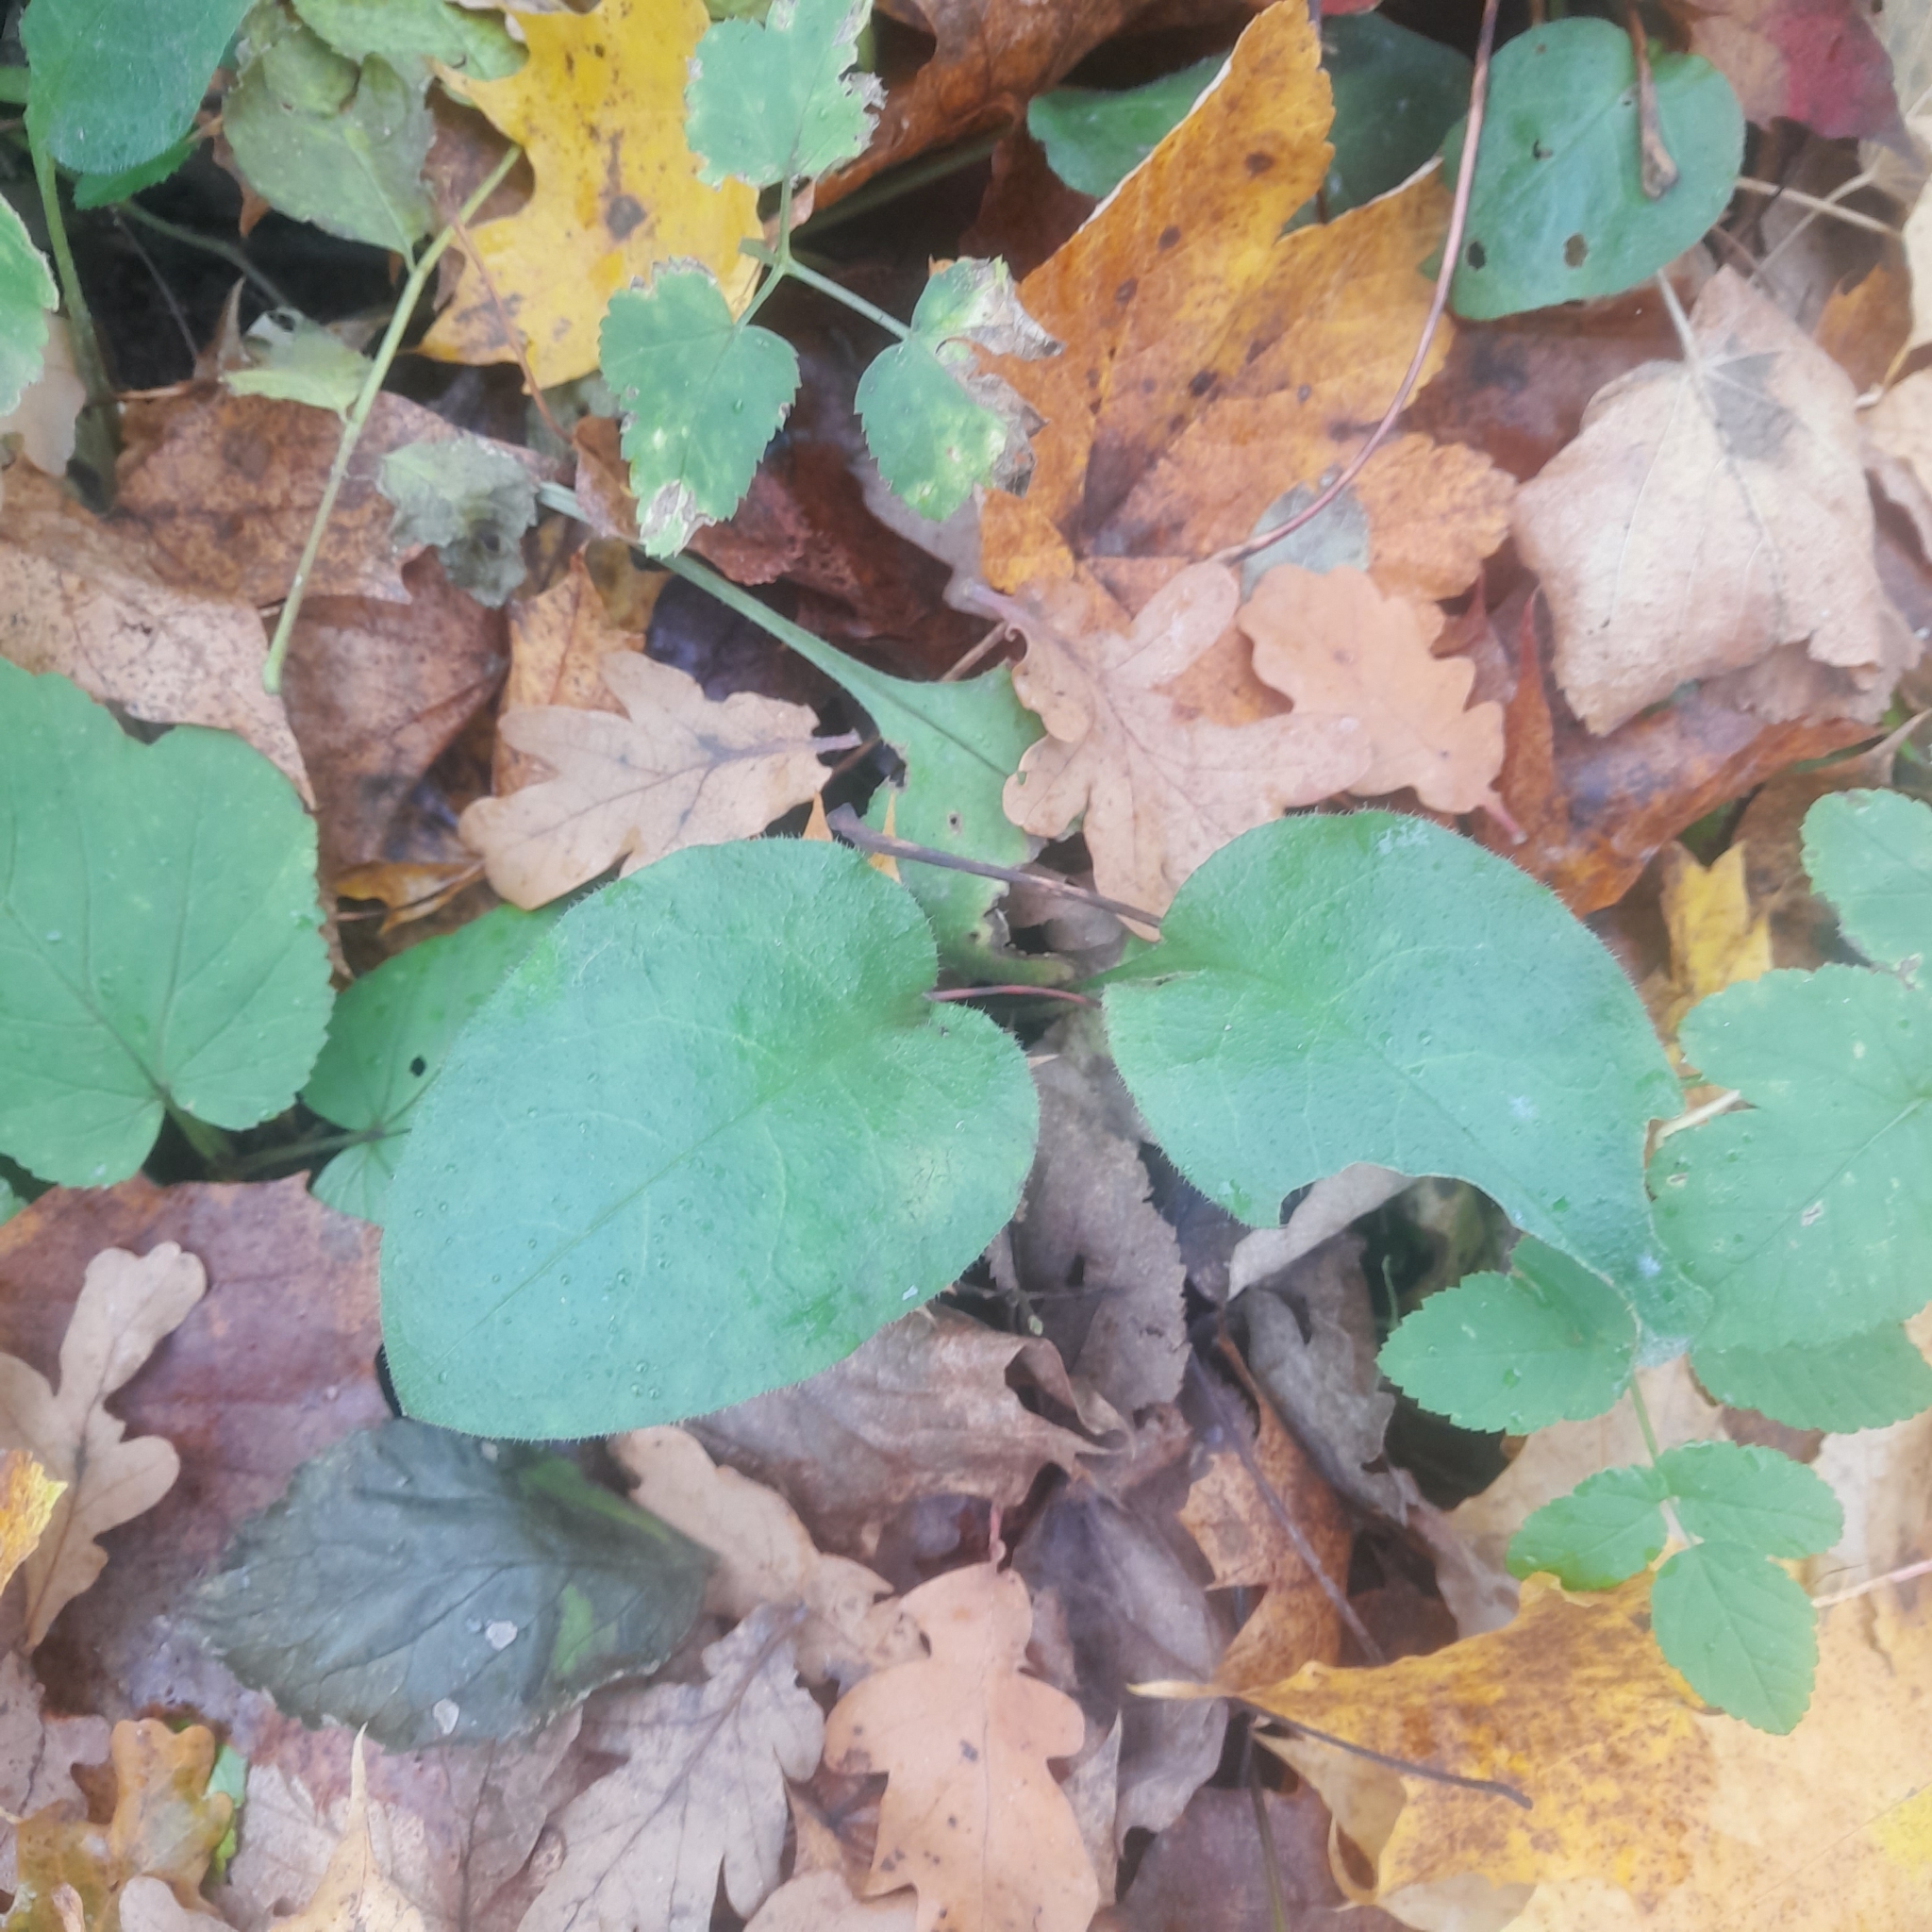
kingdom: Plantae
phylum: Tracheophyta
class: Magnoliopsida
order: Boraginales
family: Boraginaceae
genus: Pulmonaria
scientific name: Pulmonaria obscura
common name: Suffolk lungwort
